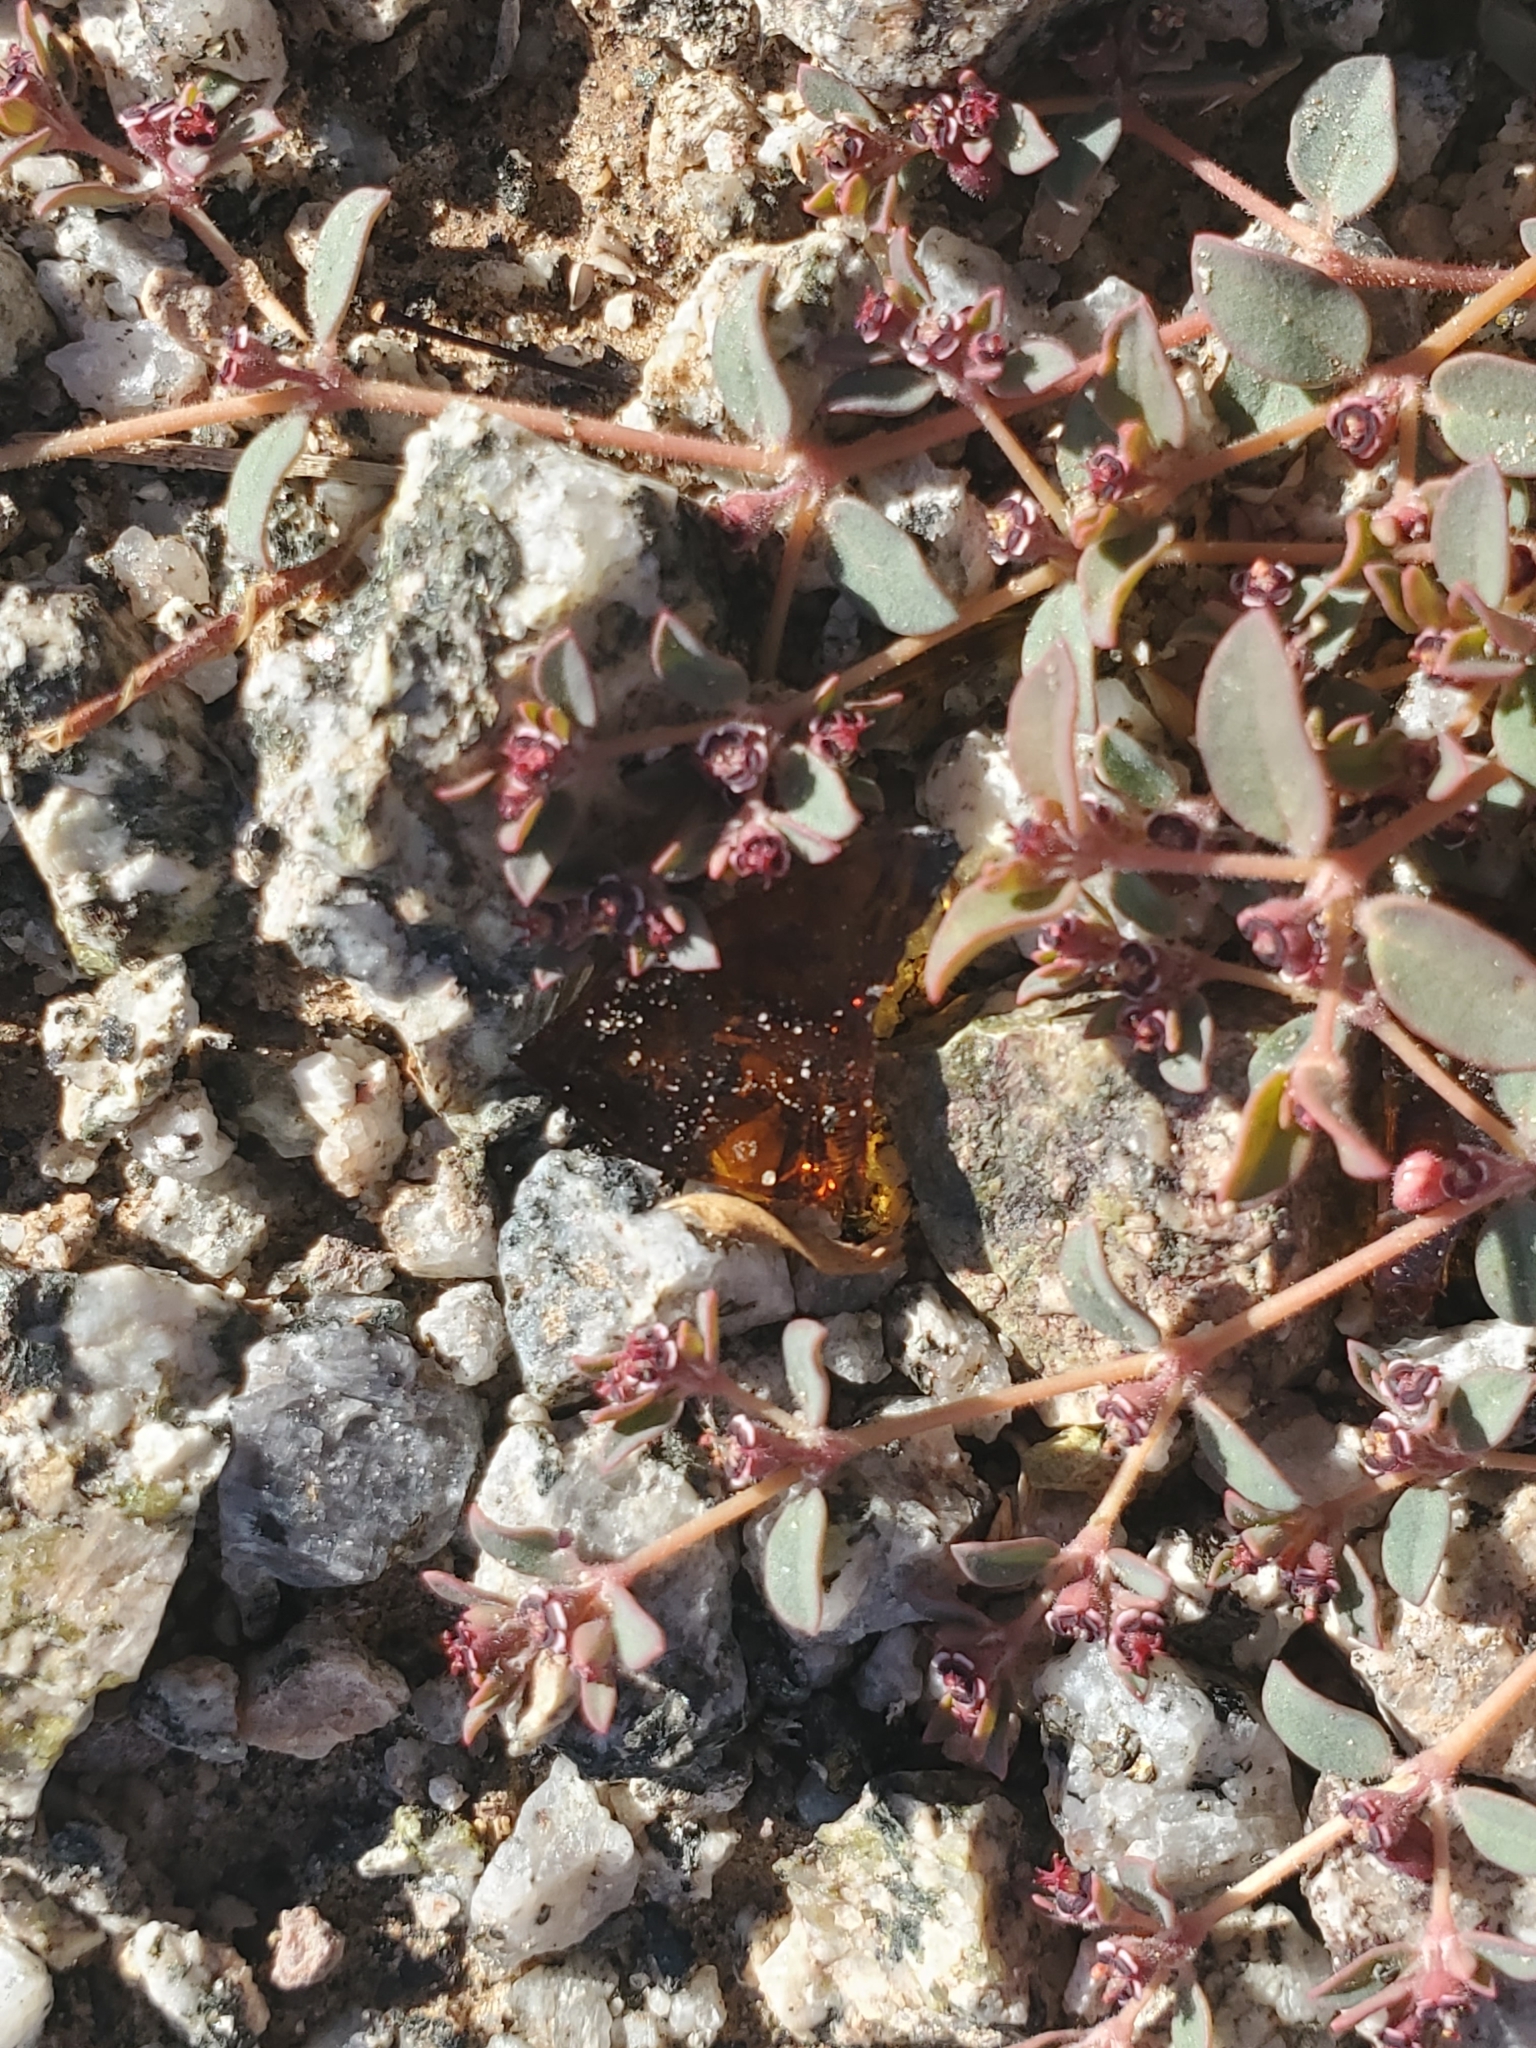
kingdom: Plantae
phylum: Tracheophyta
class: Magnoliopsida
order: Malpighiales
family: Euphorbiaceae
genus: Euphorbia
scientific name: Euphorbia polycarpa
